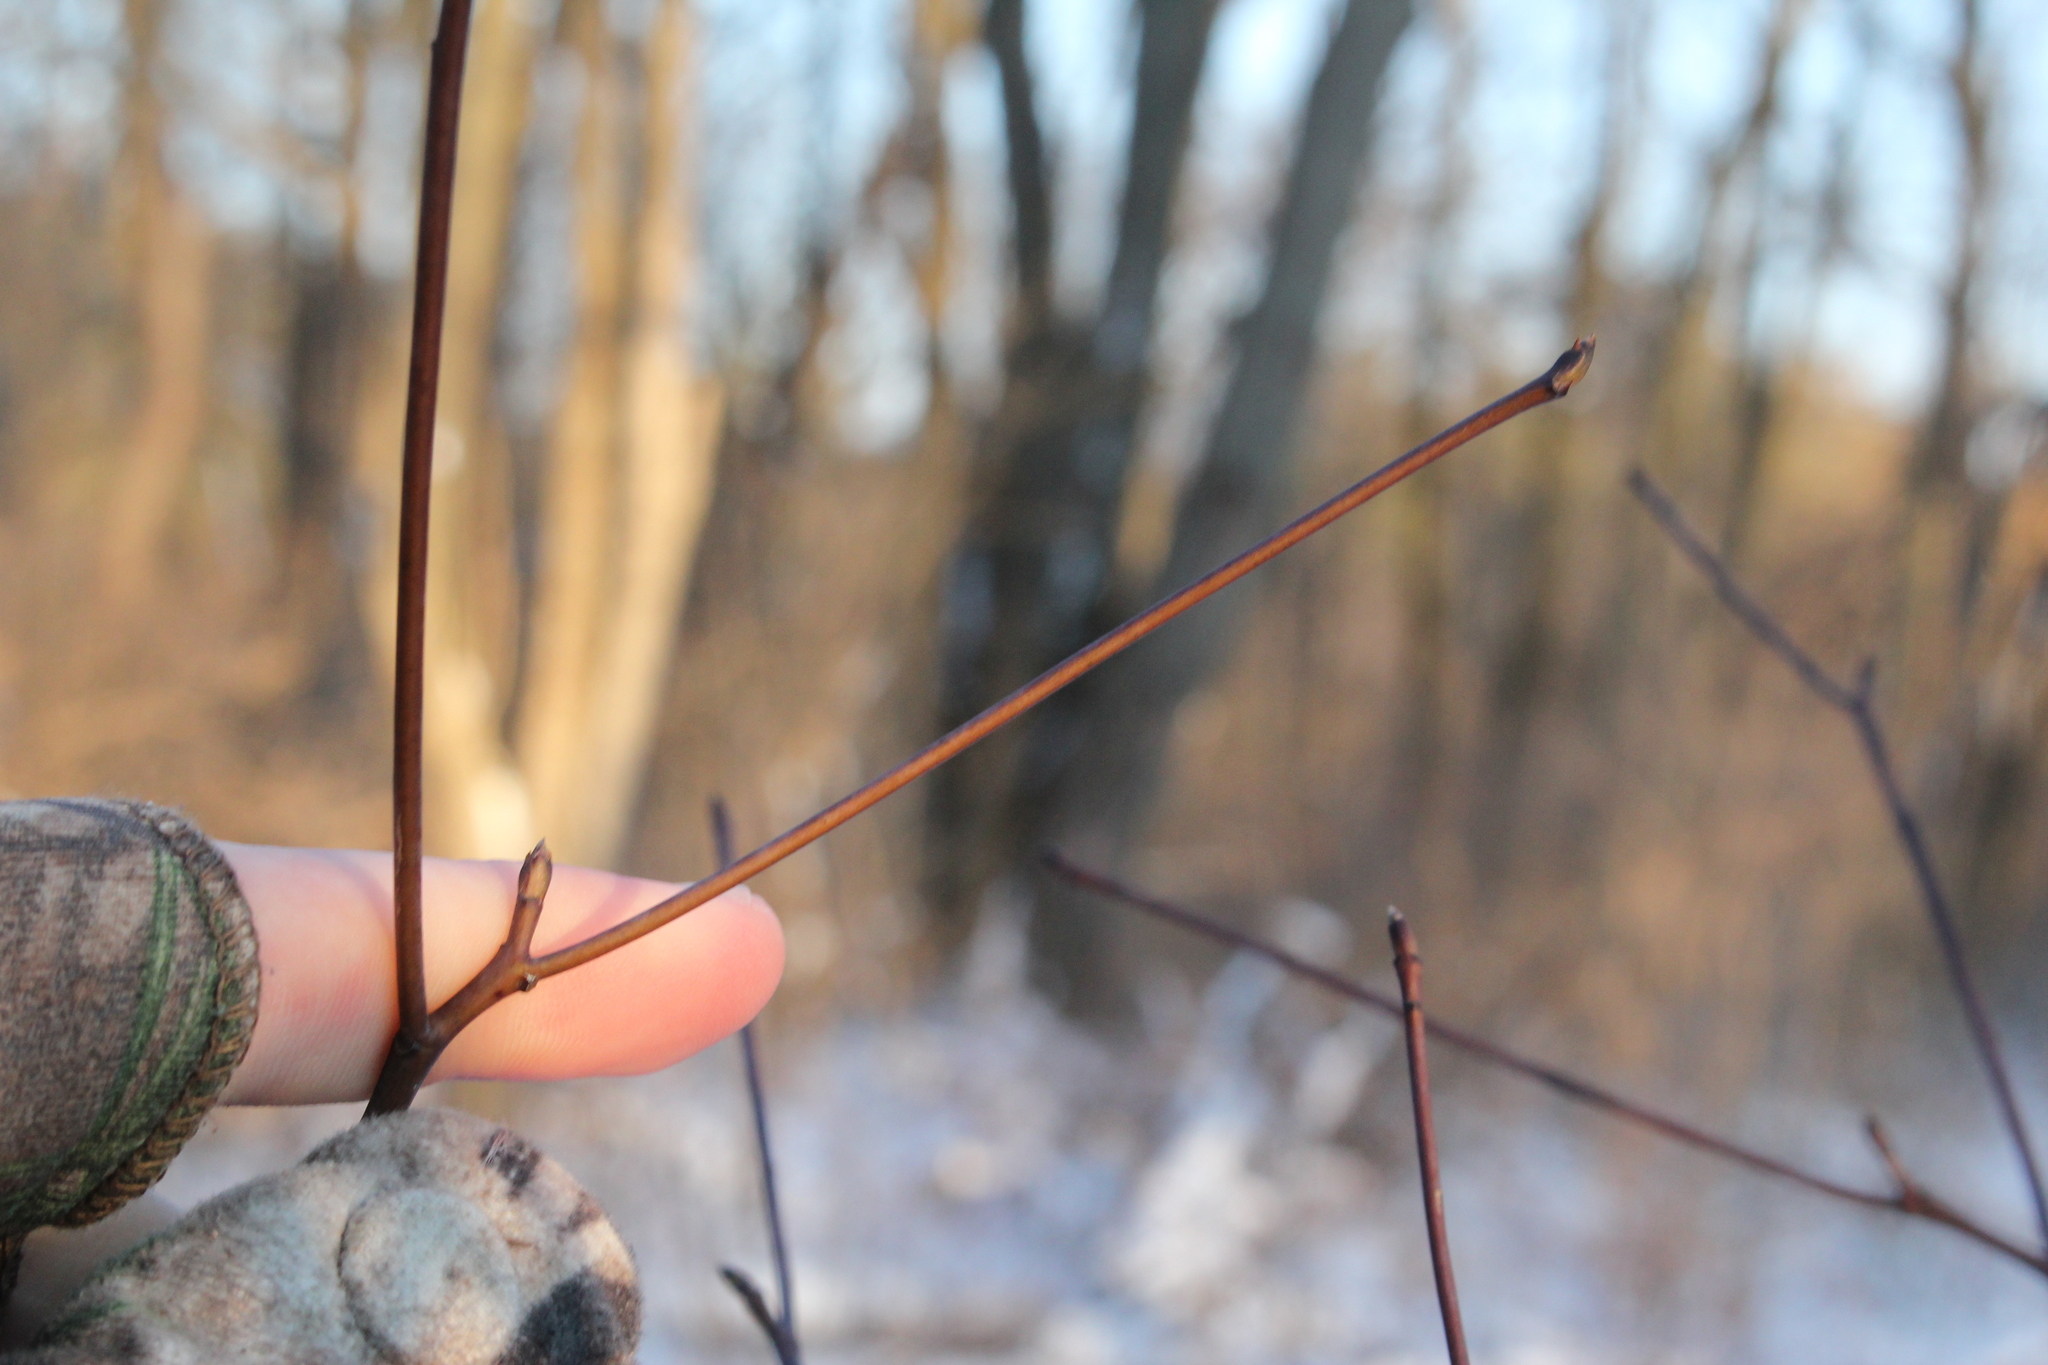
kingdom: Plantae
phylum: Tracheophyta
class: Magnoliopsida
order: Cornales
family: Cornaceae
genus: Cornus
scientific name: Cornus alternifolia
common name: Pagoda dogwood
